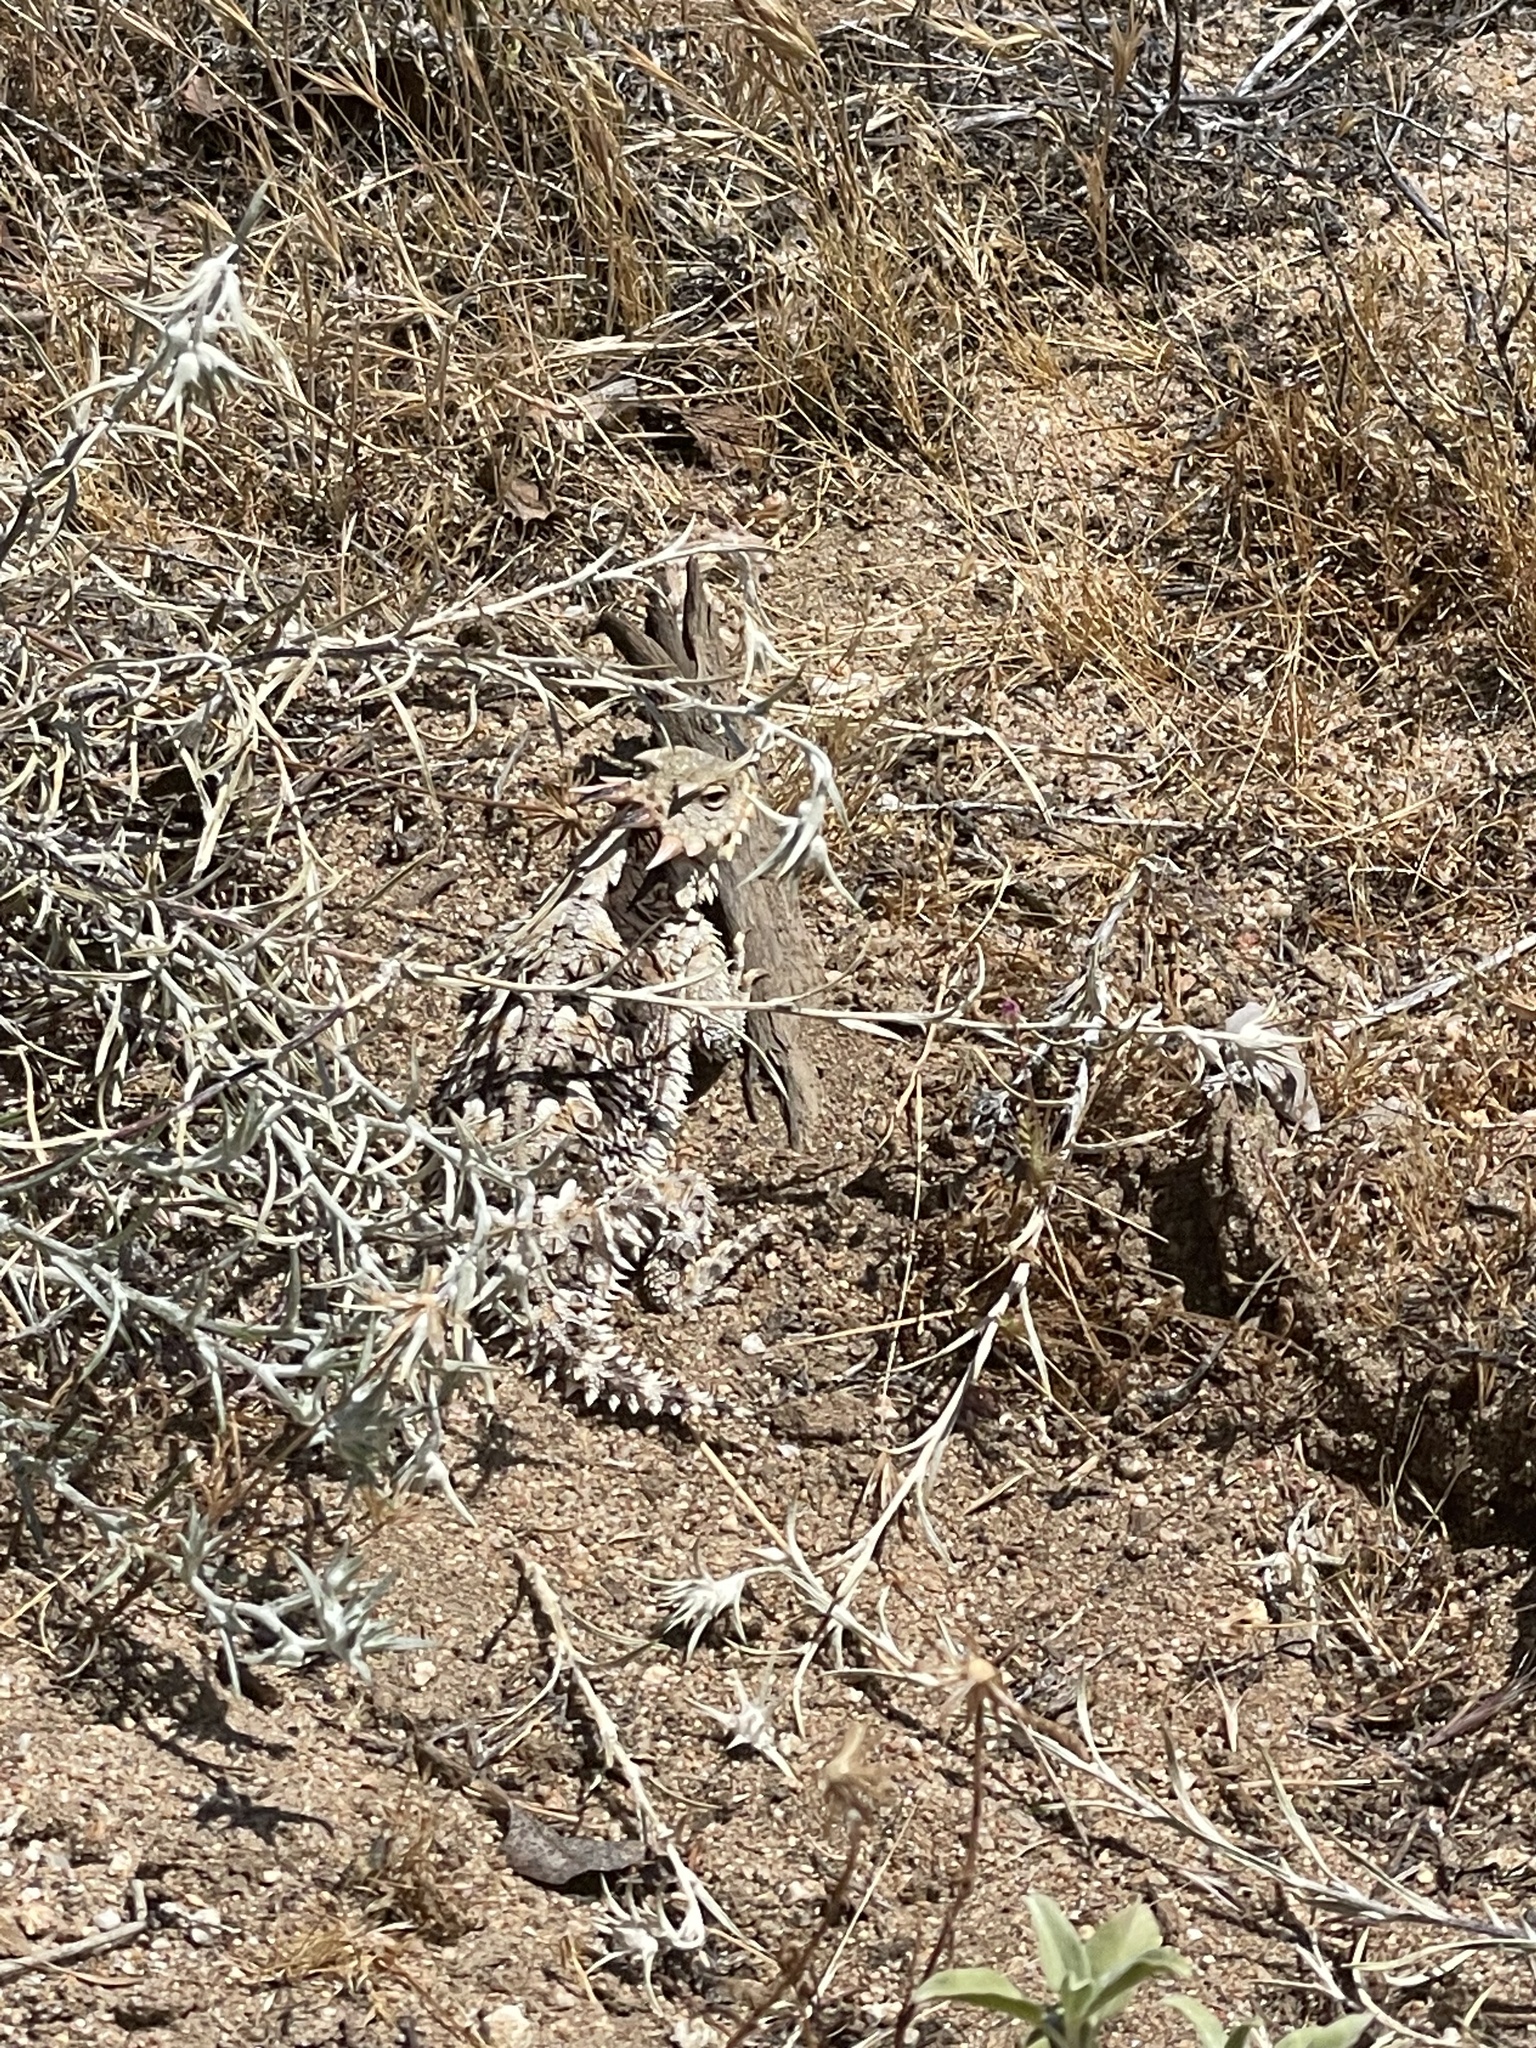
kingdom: Animalia
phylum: Chordata
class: Squamata
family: Phrynosomatidae
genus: Phrynosoma
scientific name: Phrynosoma blainvillii
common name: San diego horned lizard
